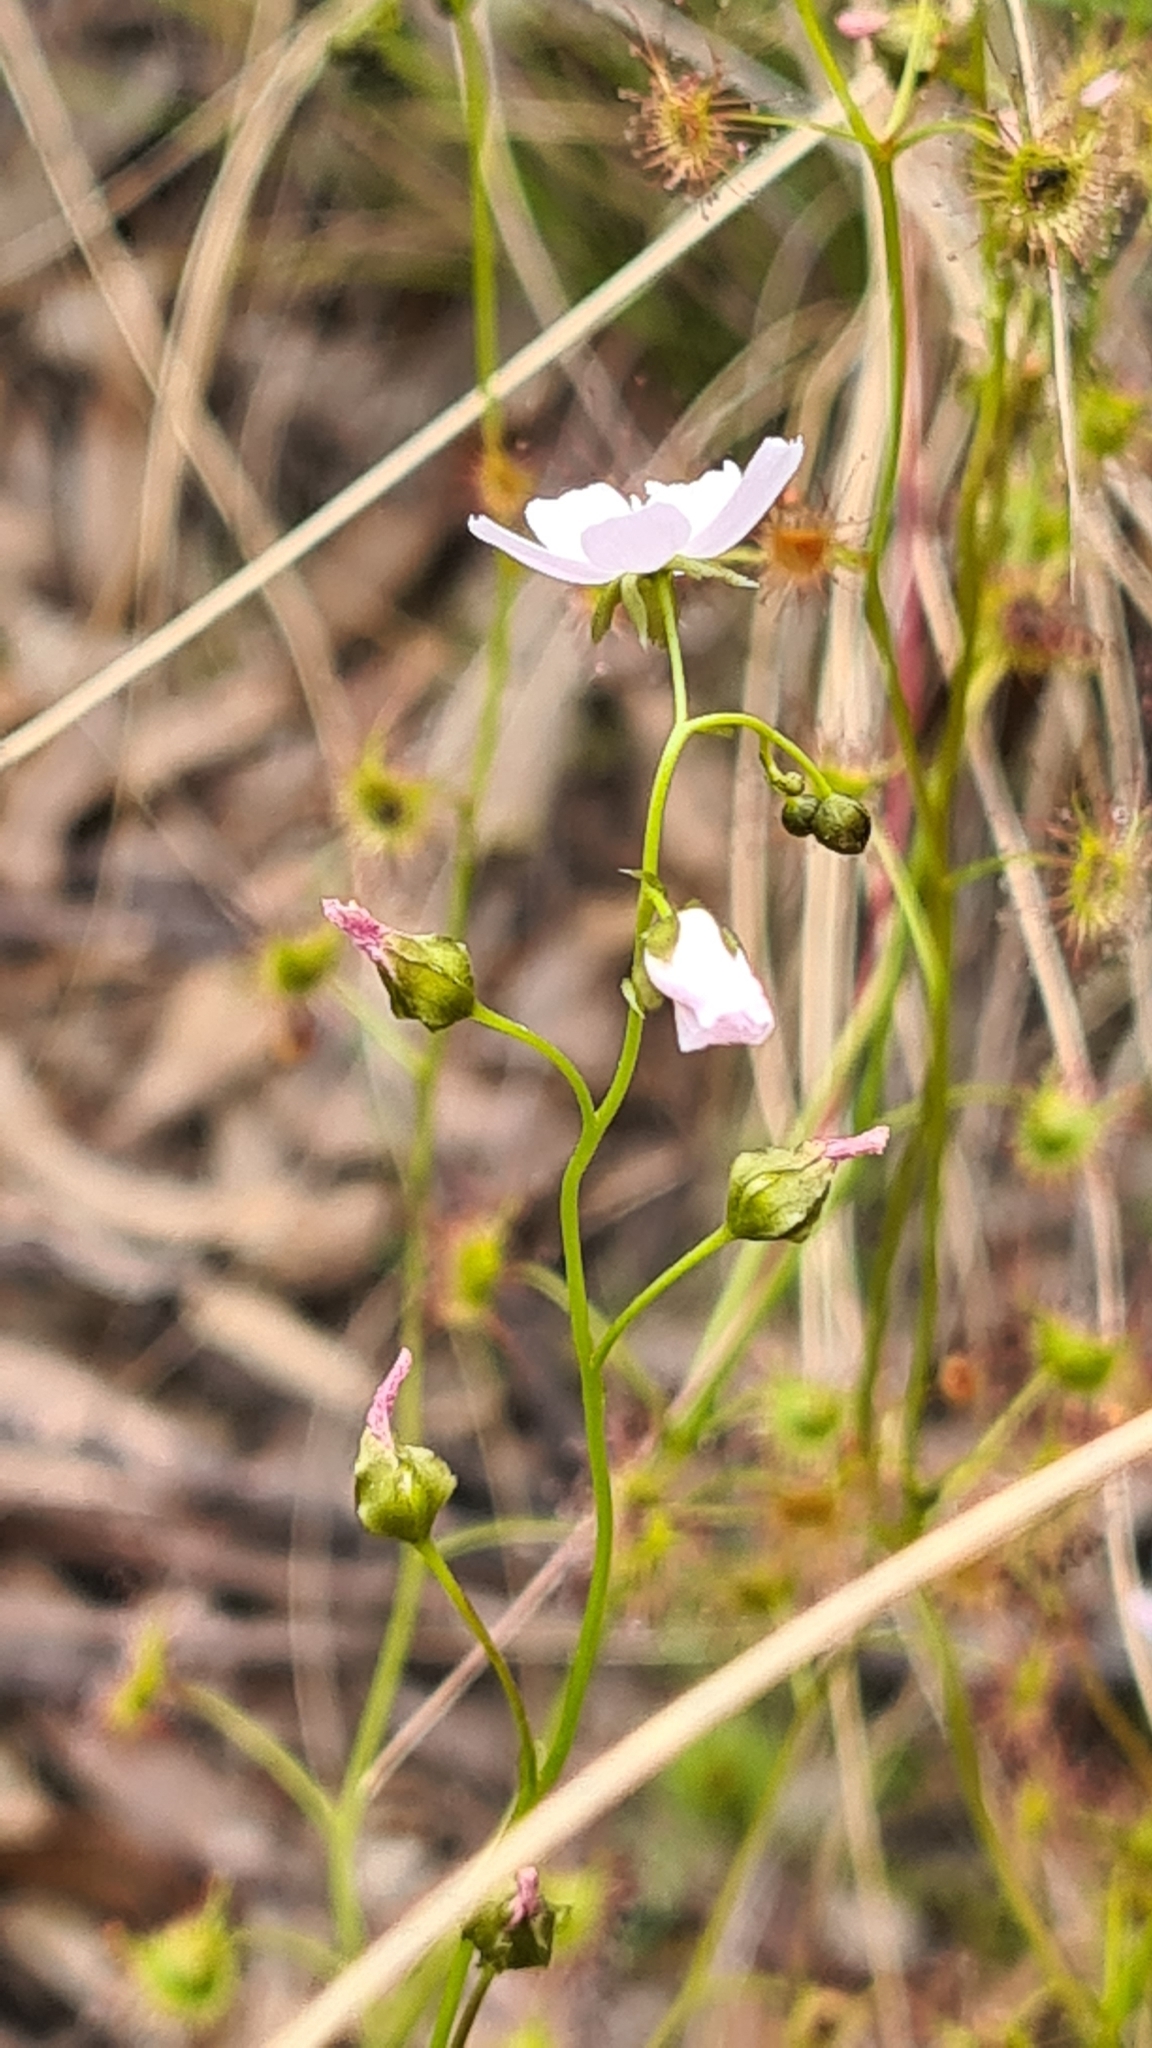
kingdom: Plantae
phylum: Tracheophyta
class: Magnoliopsida
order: Caryophyllales
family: Droseraceae
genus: Drosera
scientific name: Drosera peltata
